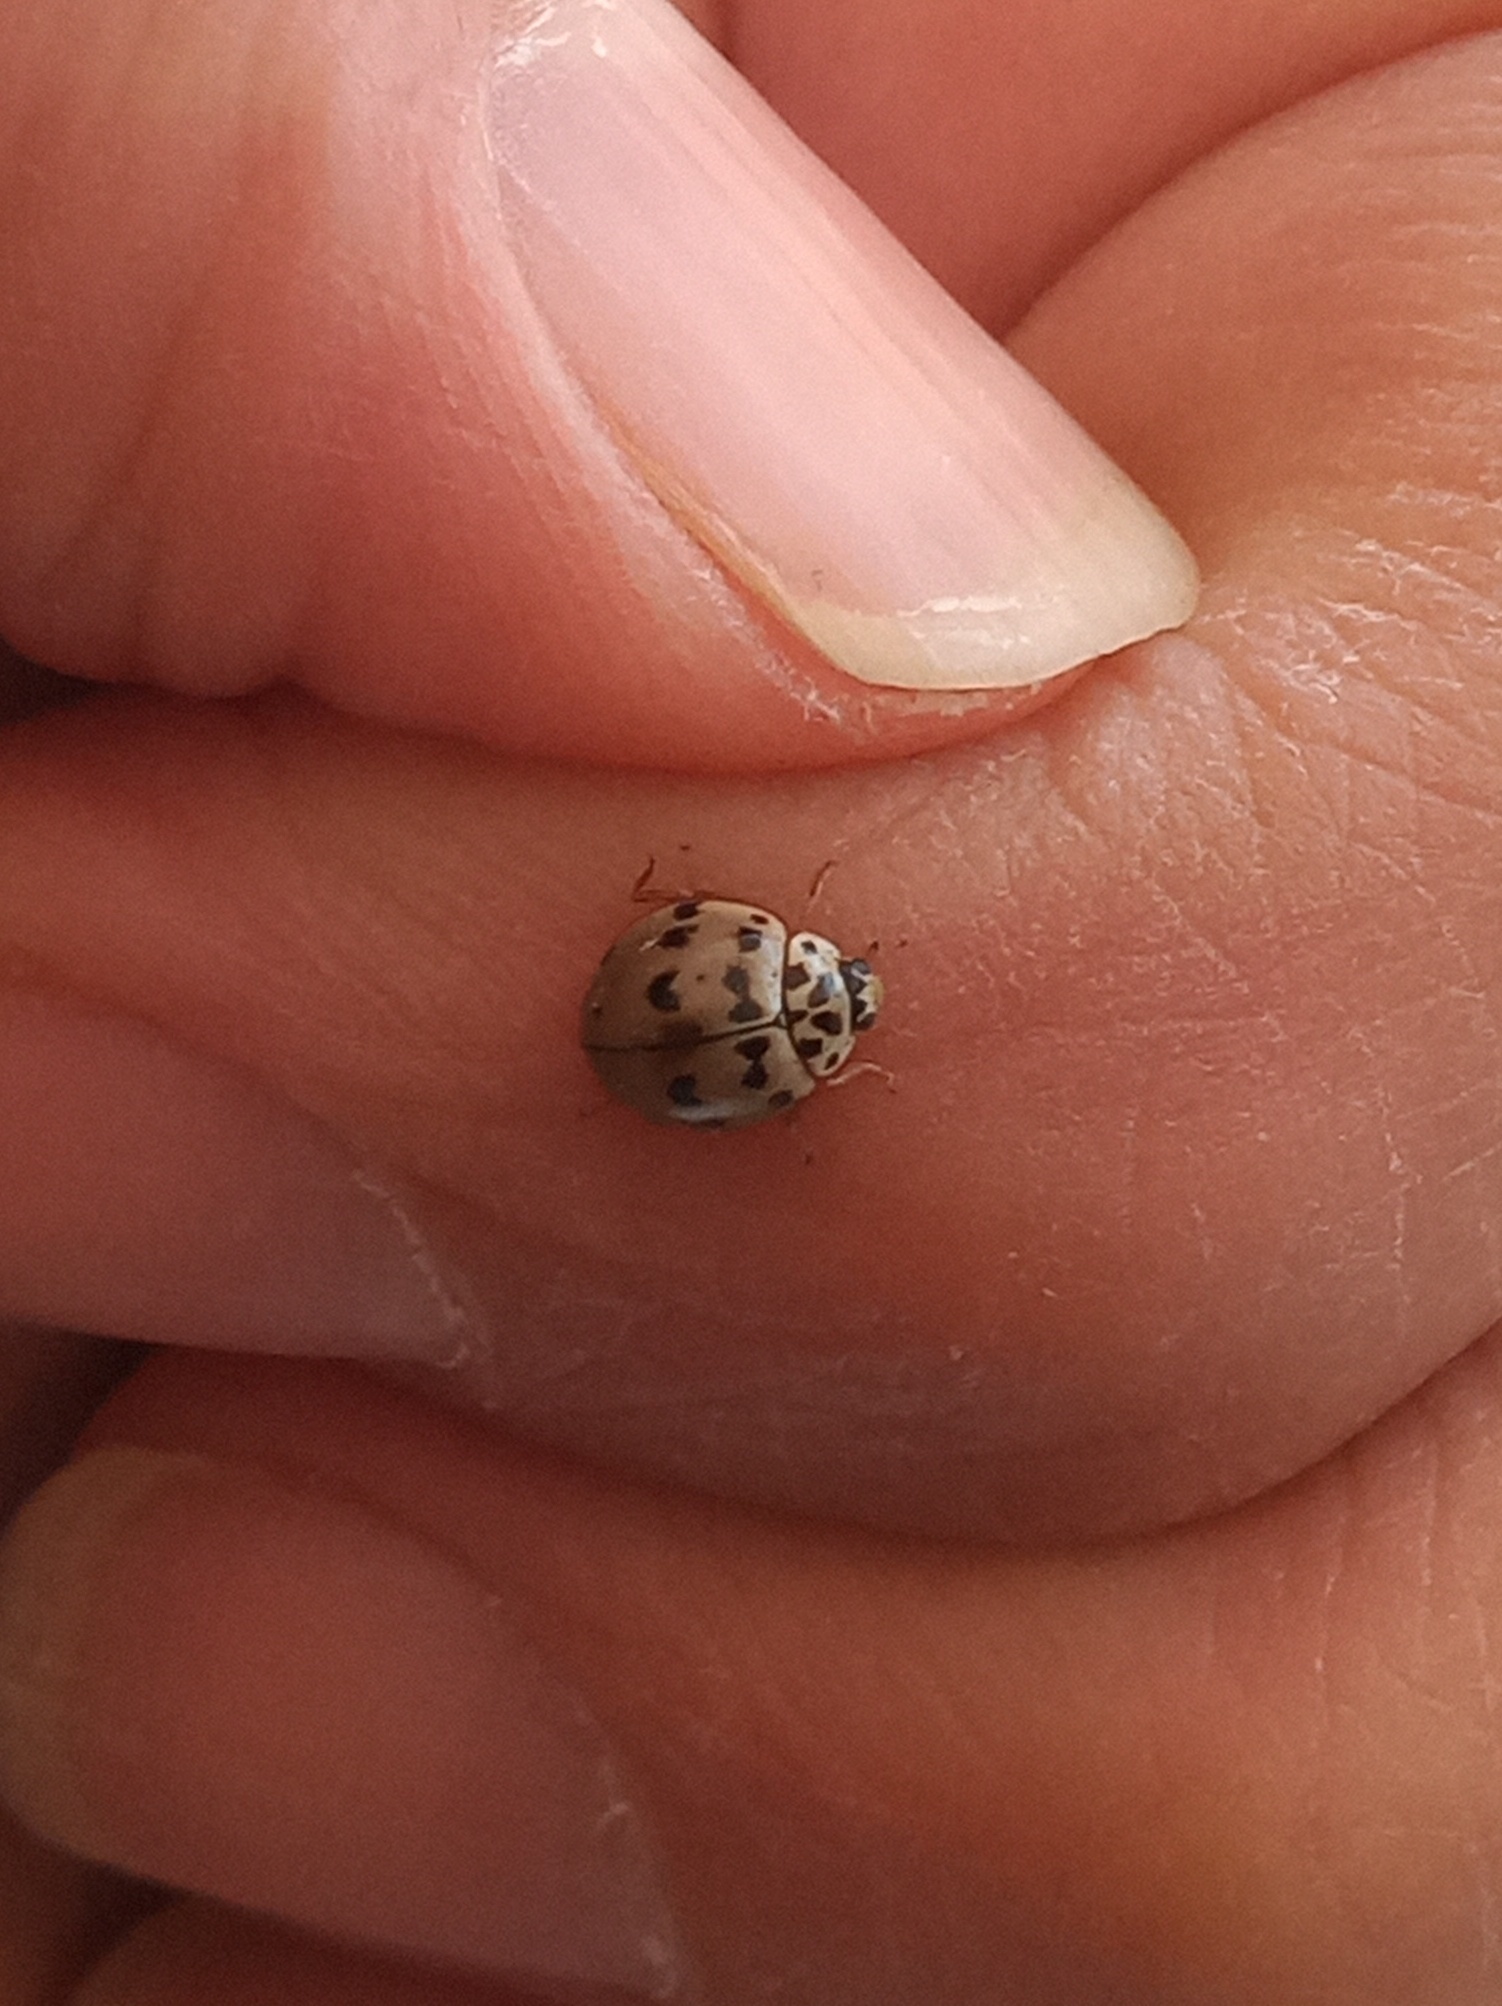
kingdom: Animalia
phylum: Arthropoda
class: Insecta
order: Coleoptera
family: Coccinellidae
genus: Olla
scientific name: Olla v-nigrum
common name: Ashy gray lady beetle
